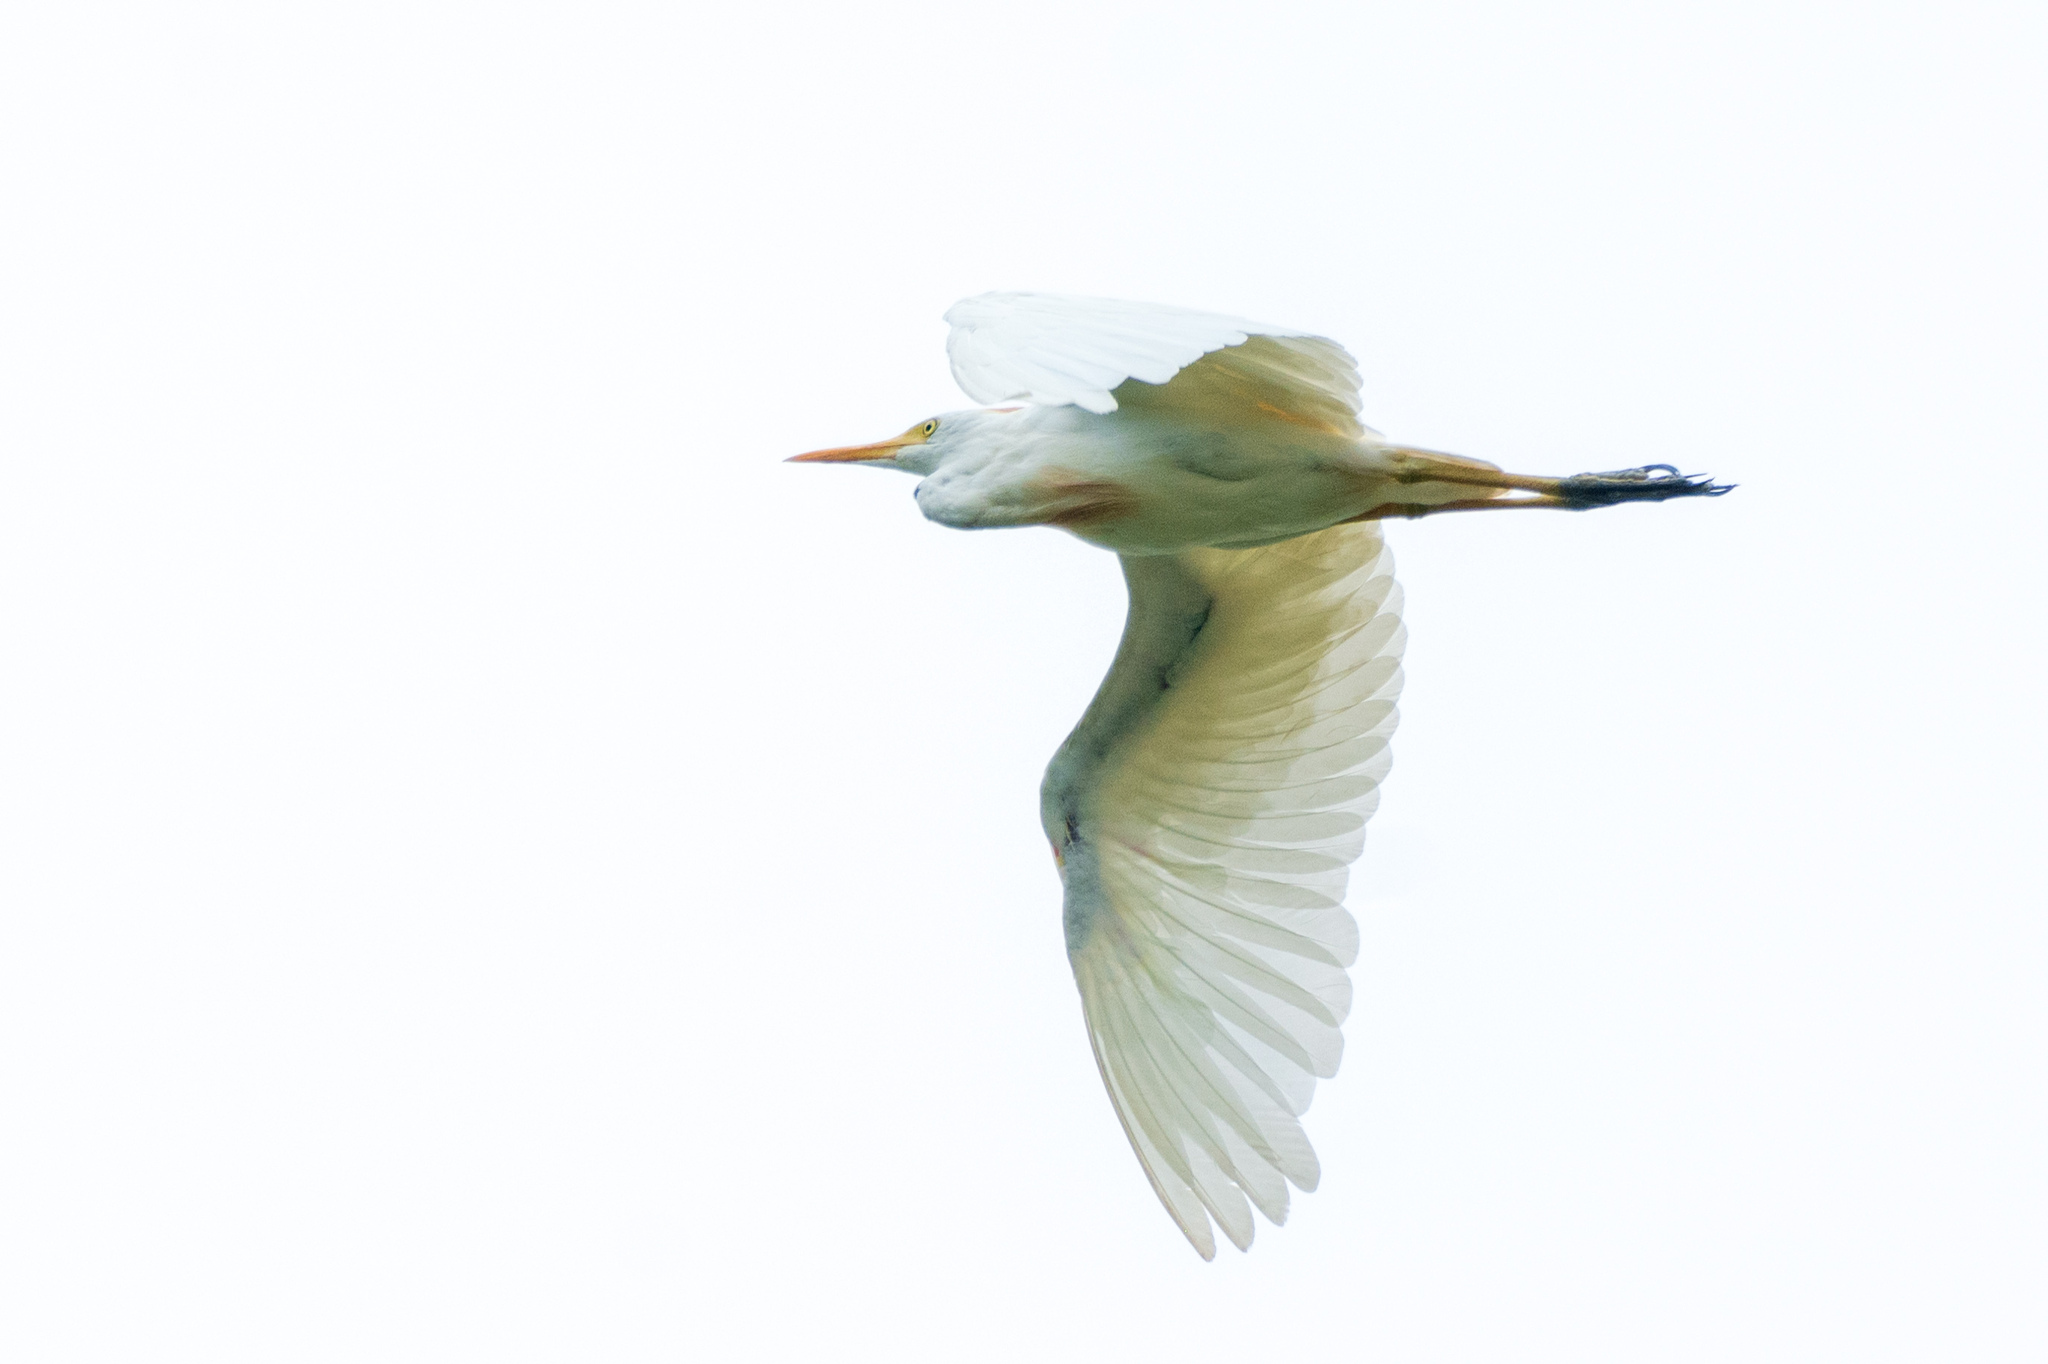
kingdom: Animalia
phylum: Chordata
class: Aves
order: Pelecaniformes
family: Ardeidae
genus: Bubulcus
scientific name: Bubulcus ibis
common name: Cattle egret
